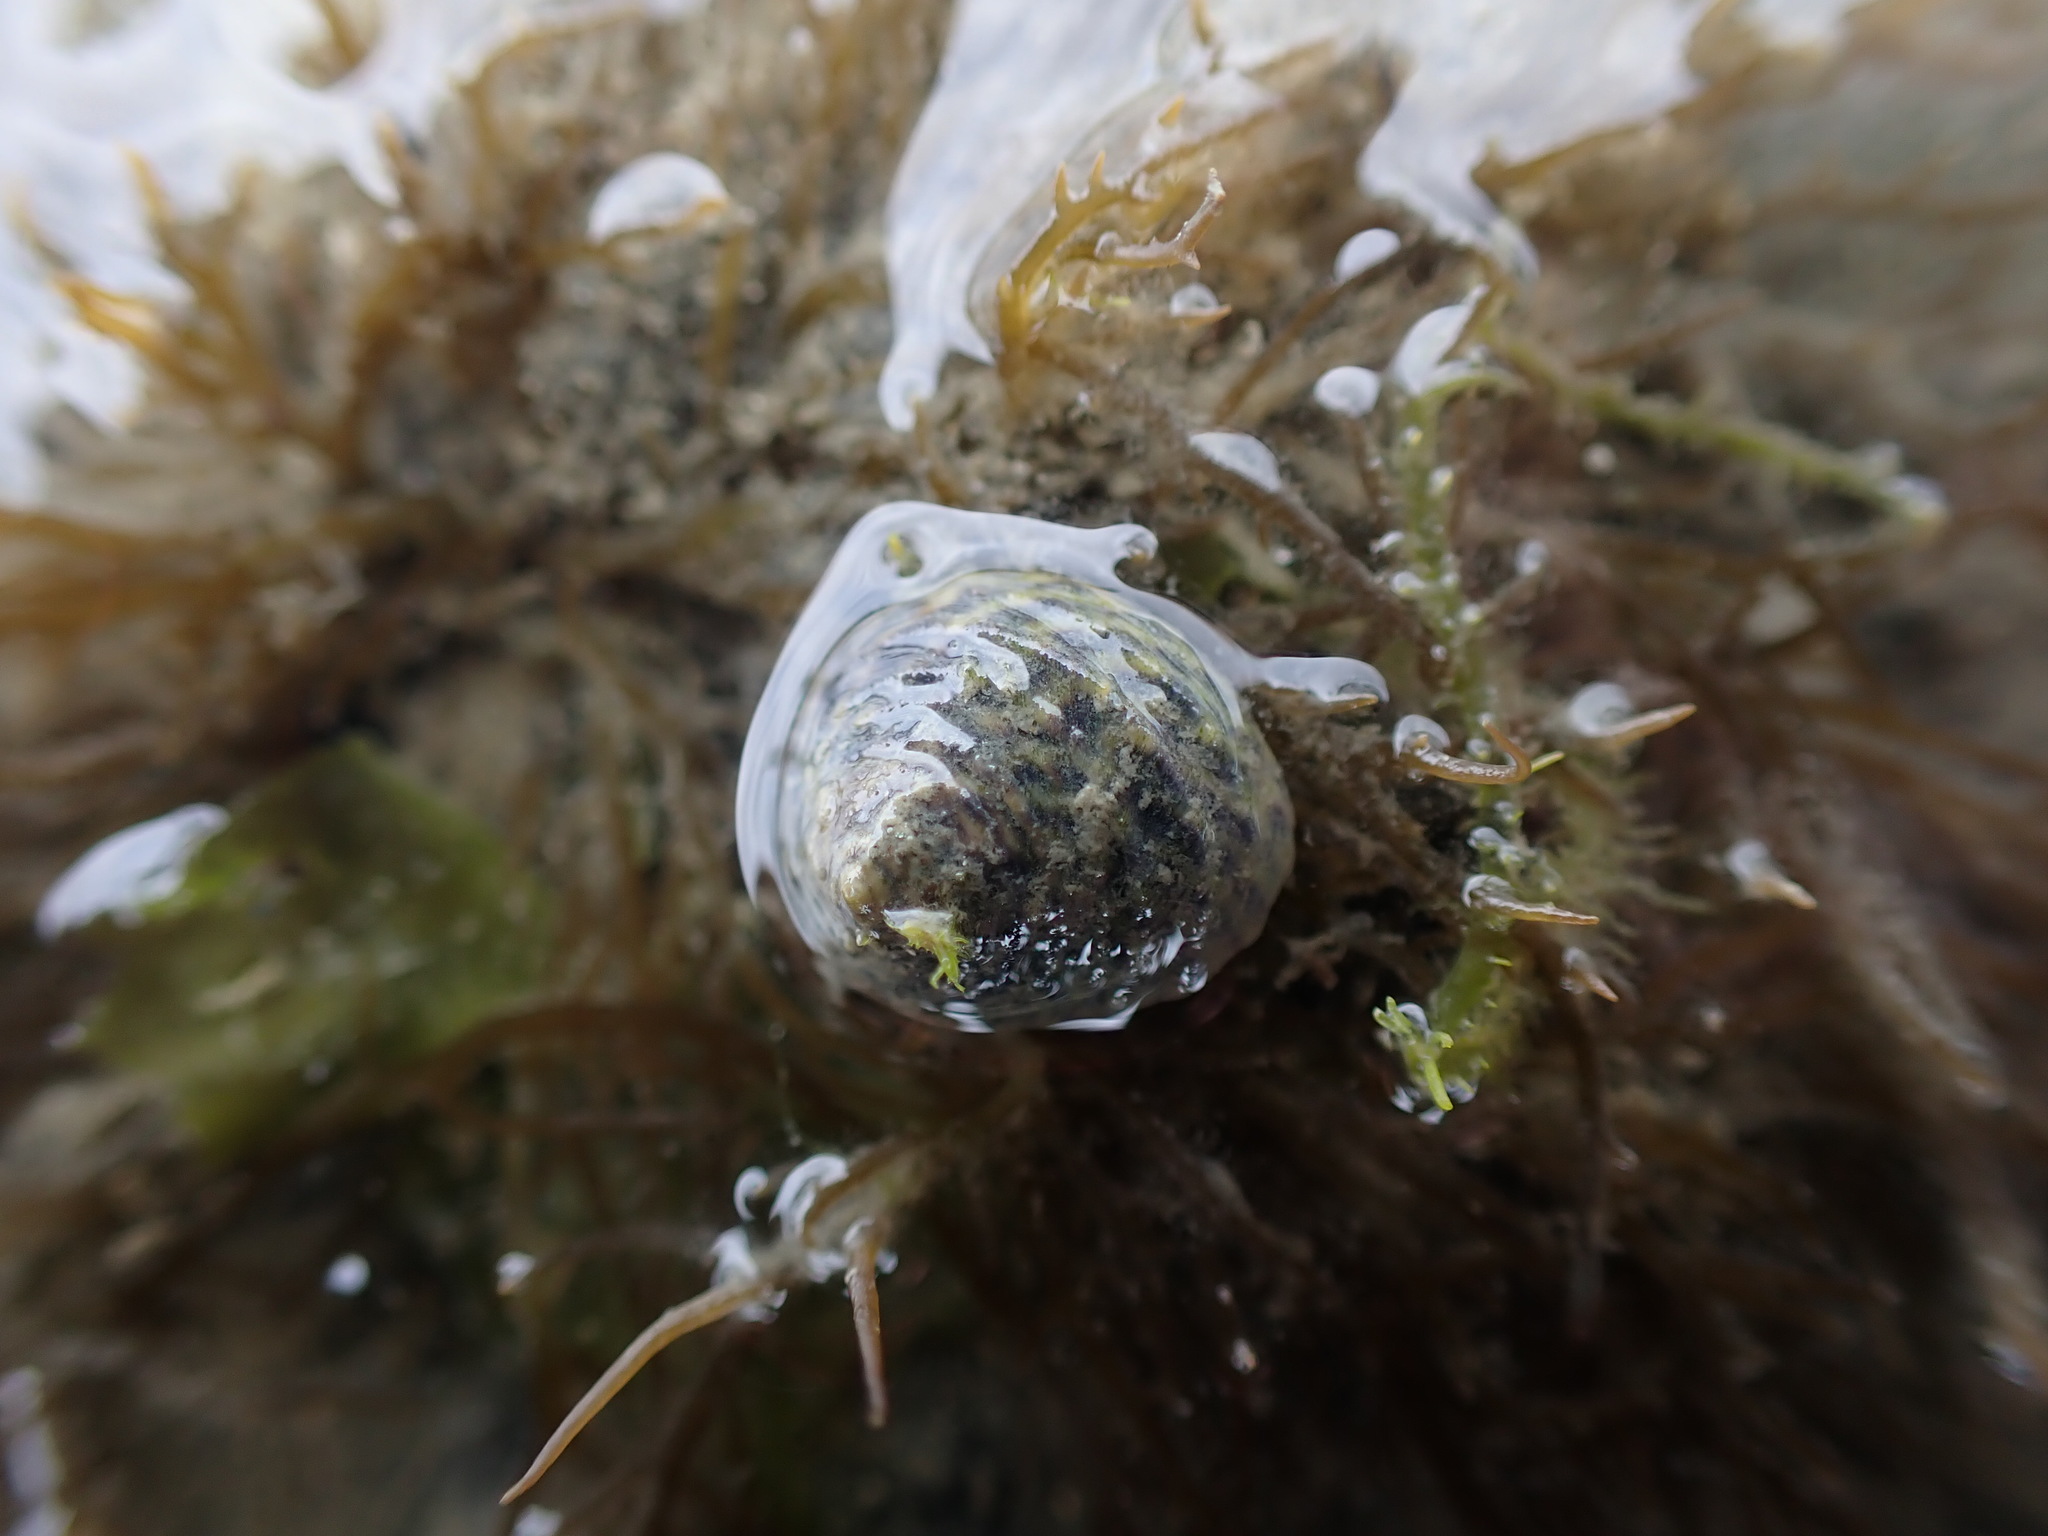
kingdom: Animalia
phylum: Mollusca
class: Gastropoda
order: Trochida
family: Trochidae
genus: Diloma
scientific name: Diloma subrostratum
